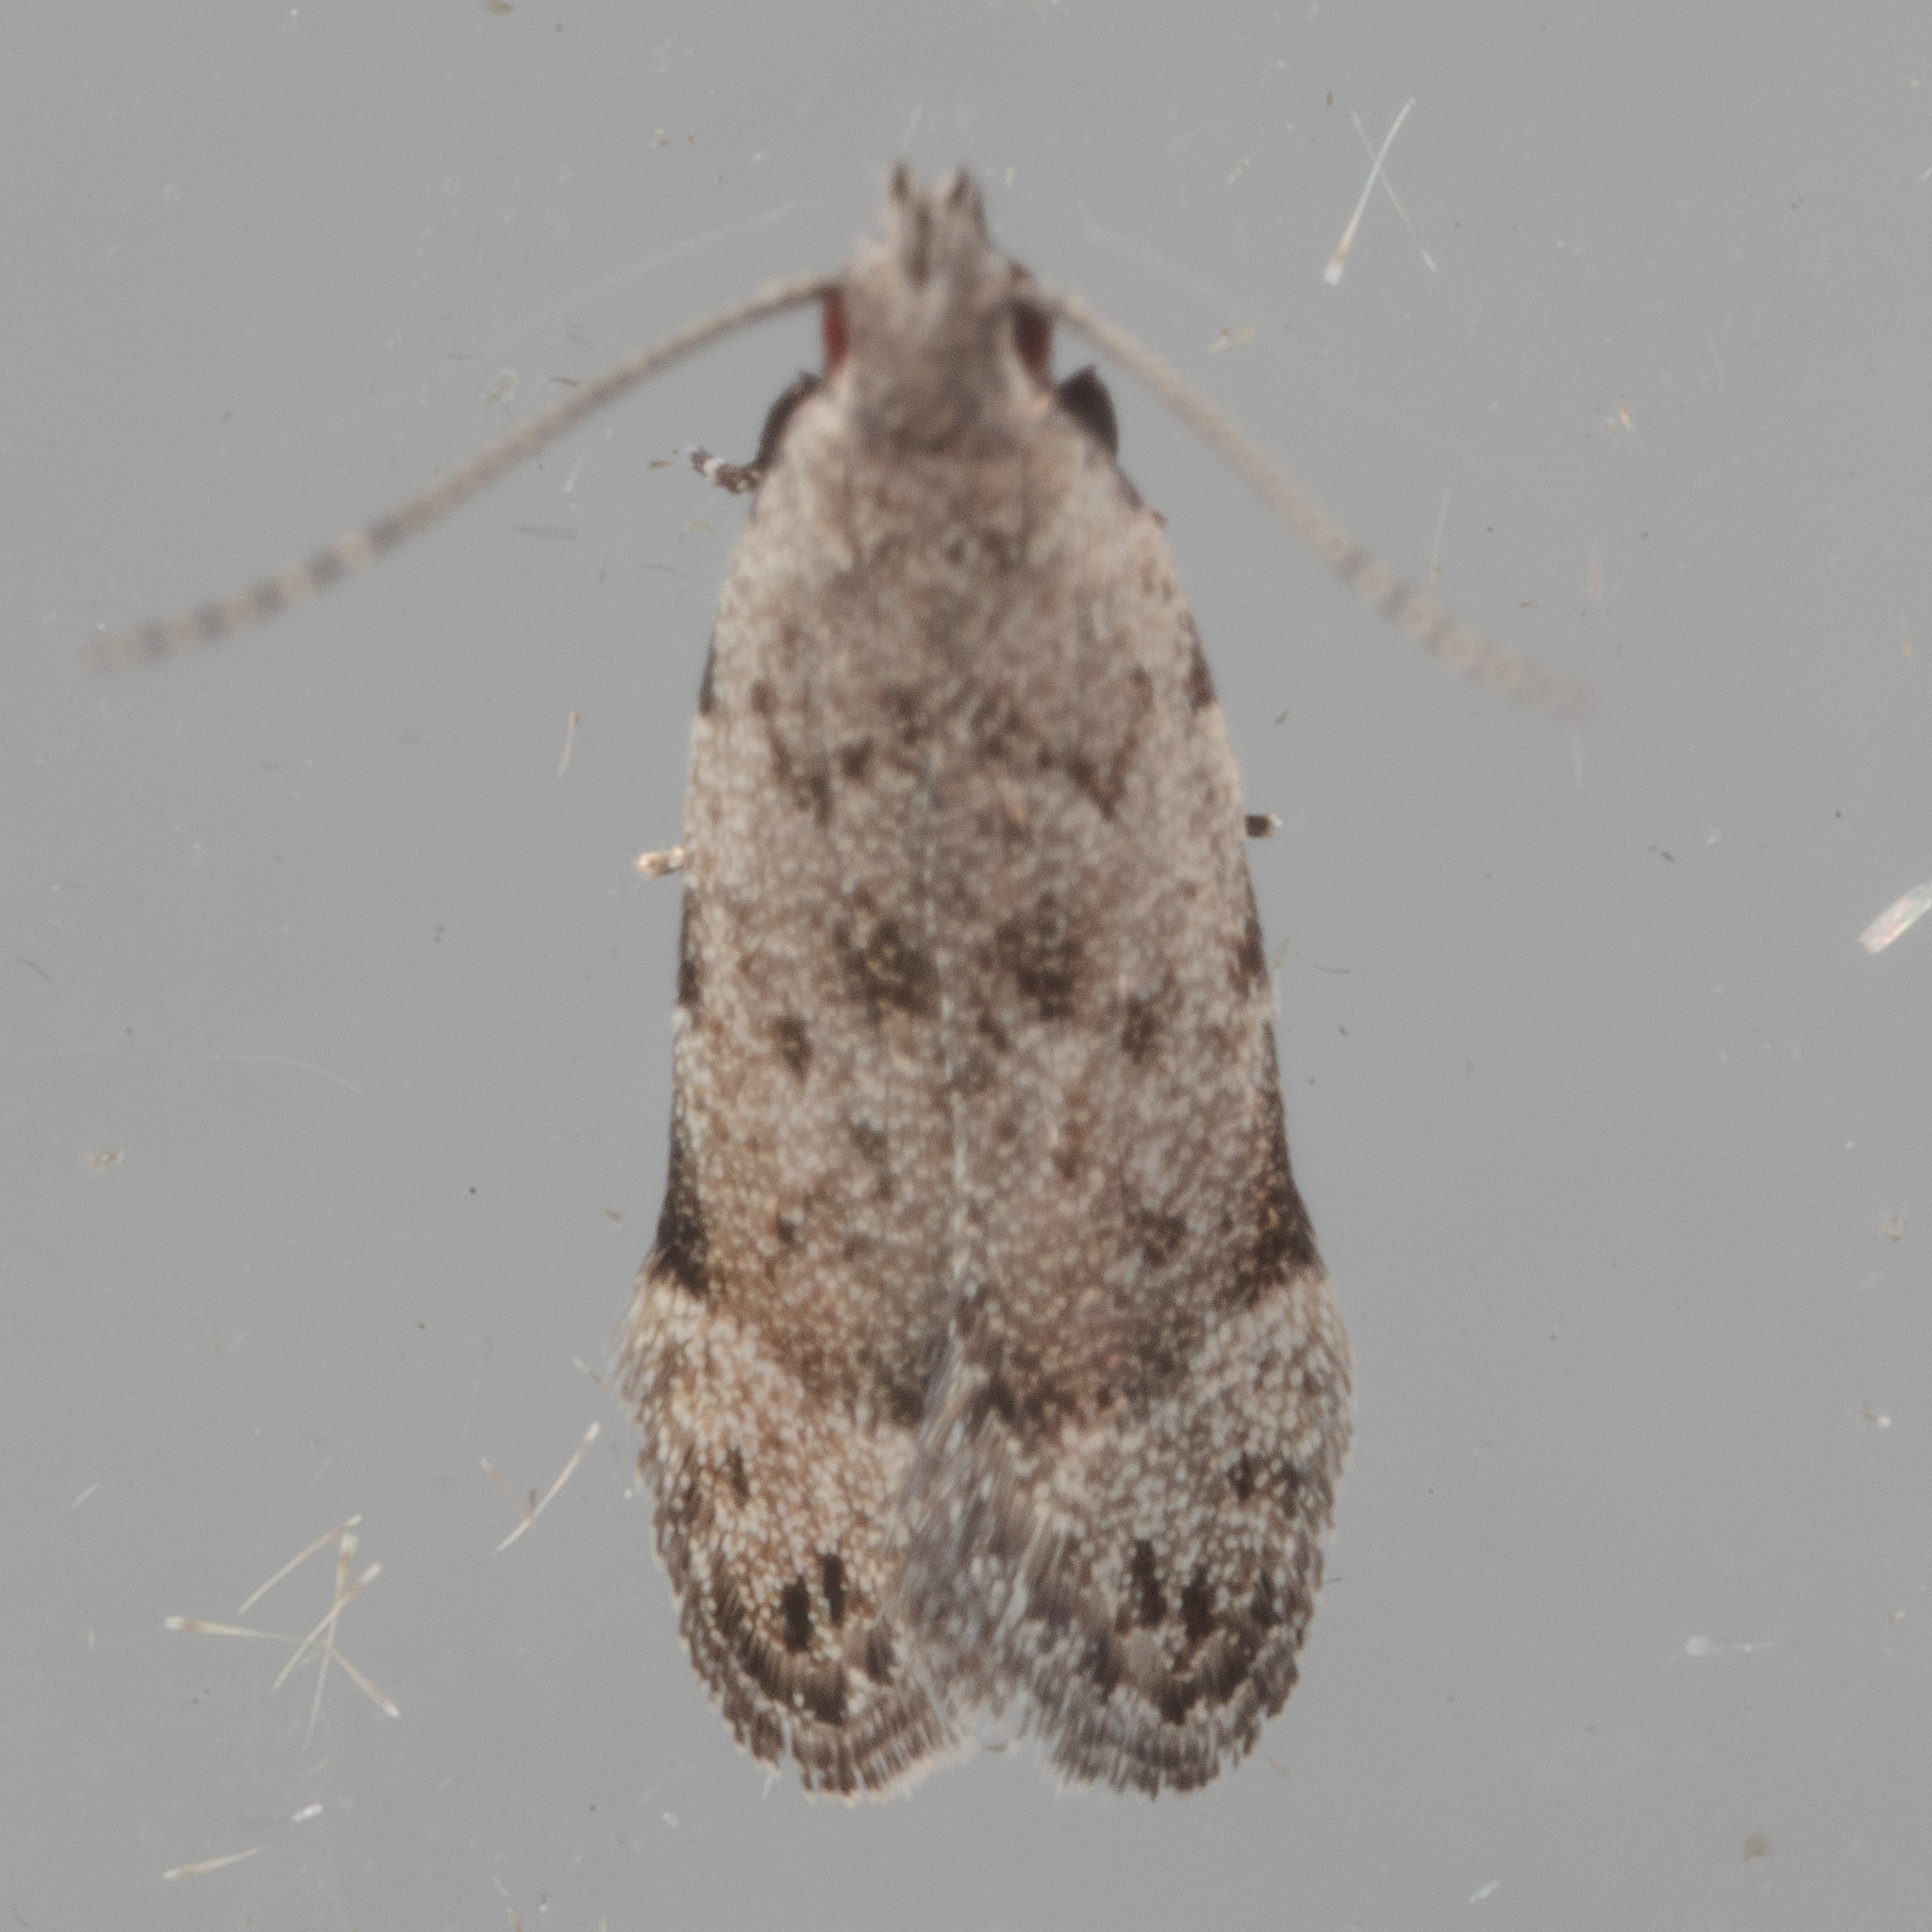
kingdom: Animalia
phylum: Arthropoda
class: Insecta
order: Lepidoptera
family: Gelechiidae
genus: Anacampsis
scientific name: Anacampsis conclusella
